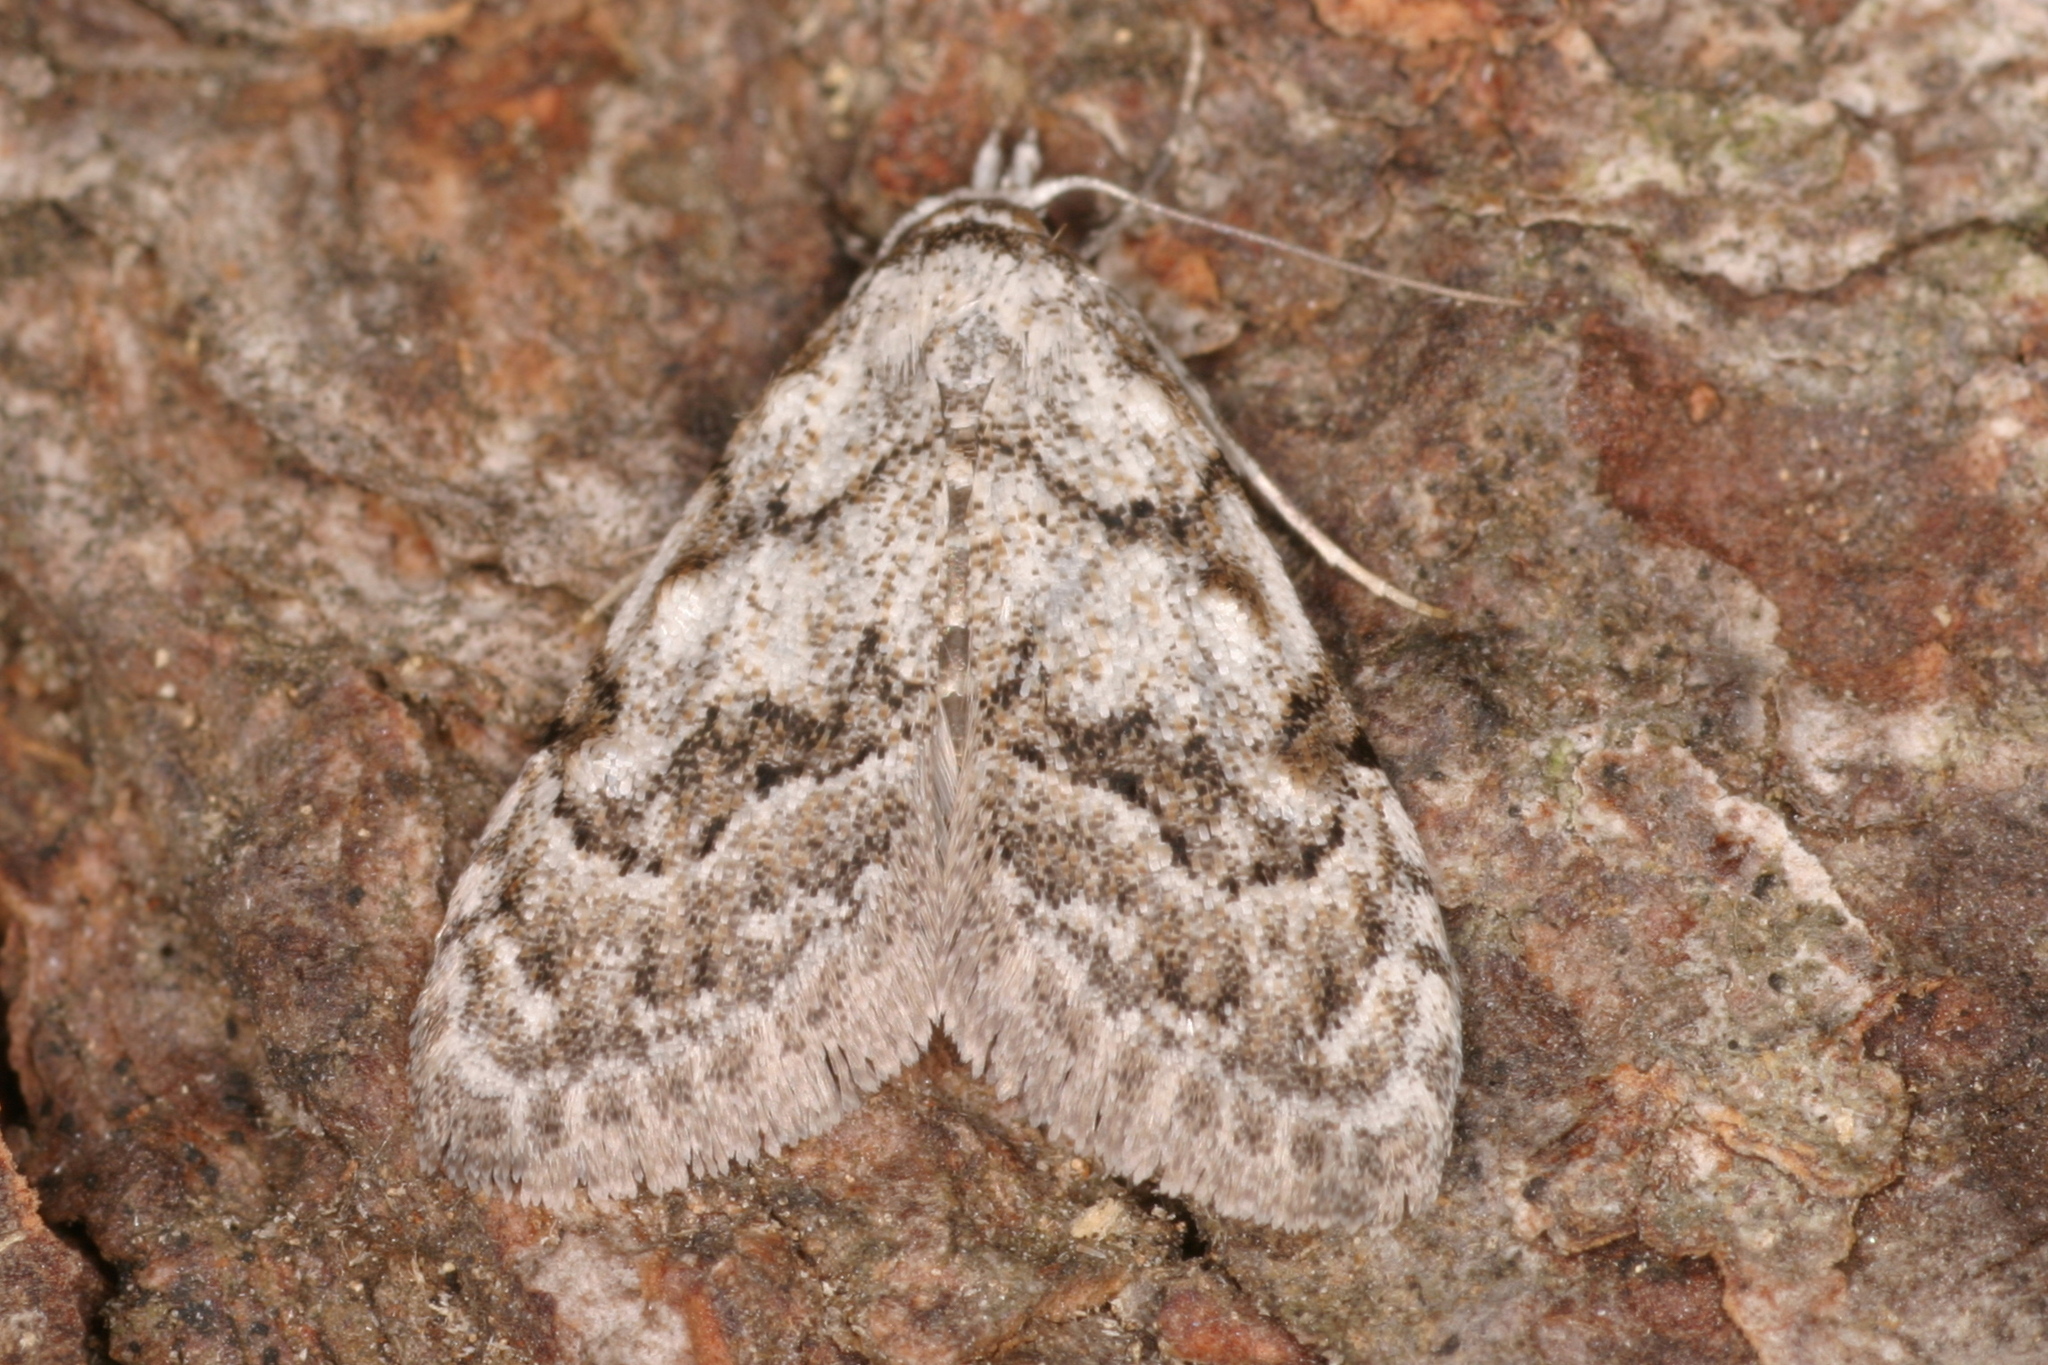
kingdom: Animalia
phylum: Arthropoda
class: Insecta
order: Lepidoptera
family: Nolidae
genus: Nola
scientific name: Nola confusalis
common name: Least black arches
